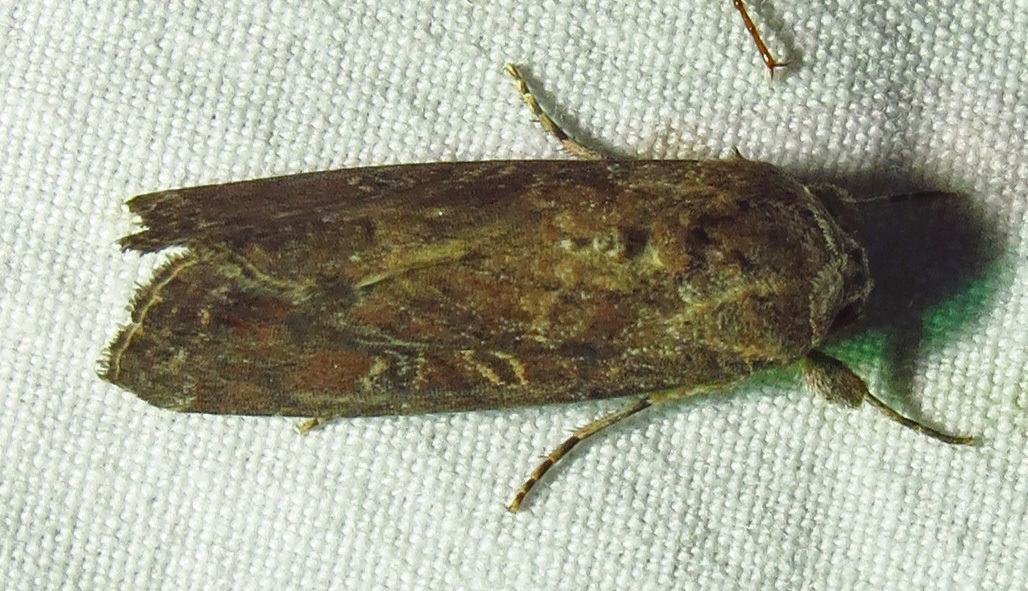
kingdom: Animalia
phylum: Arthropoda
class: Insecta
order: Lepidoptera
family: Noctuidae
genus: Spodoptera
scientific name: Spodoptera frugiperda
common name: Fall armyworm
